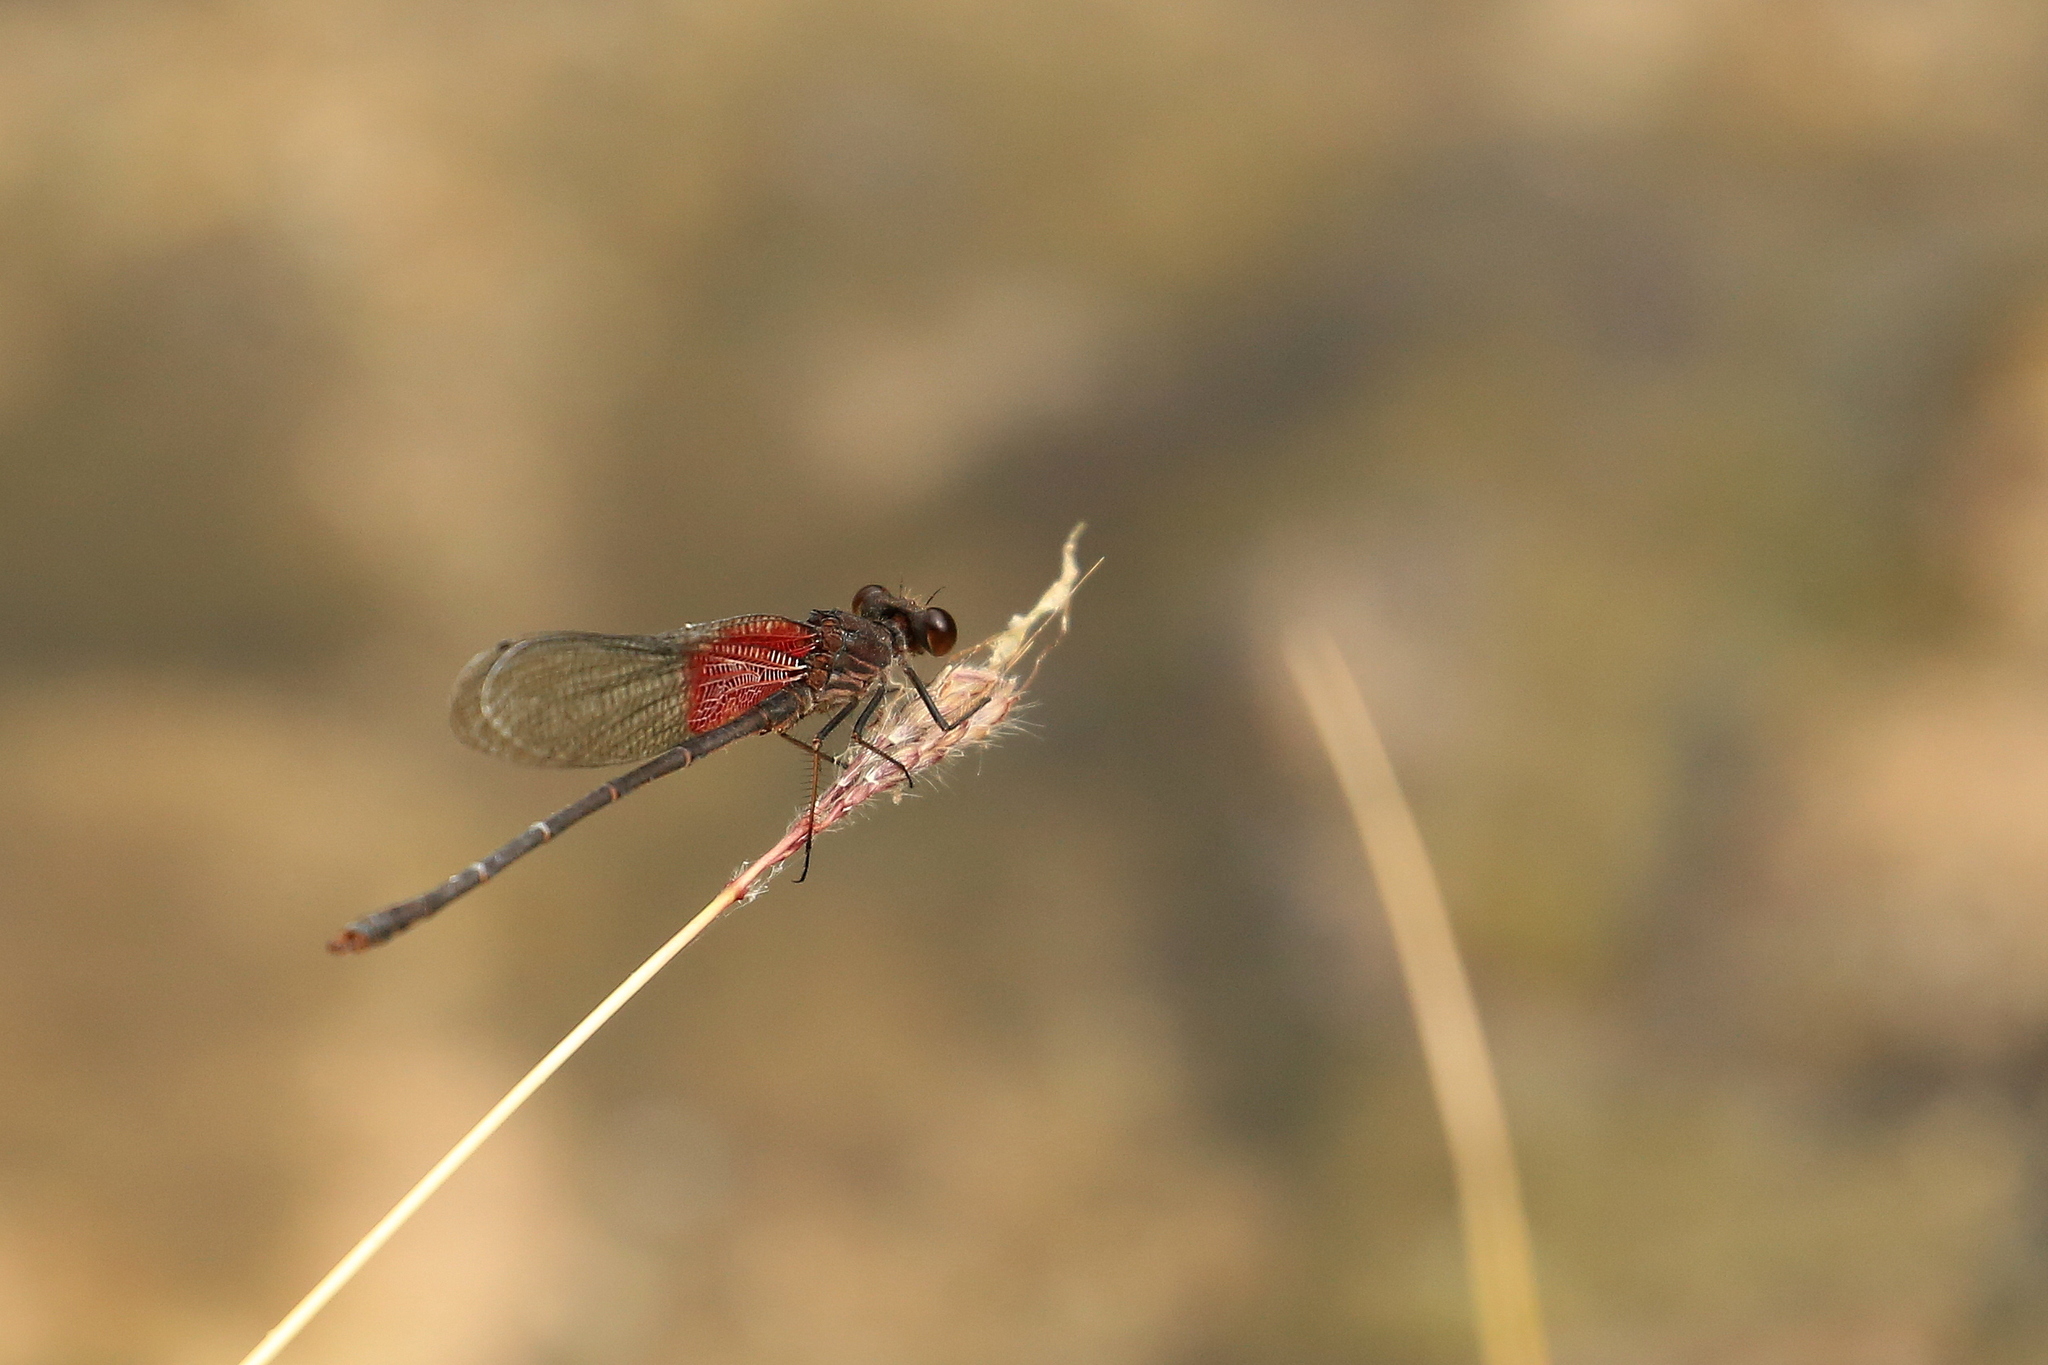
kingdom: Animalia
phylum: Arthropoda
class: Insecta
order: Odonata
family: Calopterygidae
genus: Hetaerina
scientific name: Hetaerina americana
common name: American rubyspot
